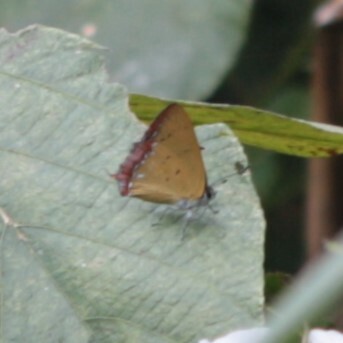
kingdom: Animalia
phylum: Arthropoda
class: Insecta
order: Lepidoptera
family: Lycaenidae
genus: Heliophorus
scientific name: Heliophorus ila
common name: Restricted purple sapphire
